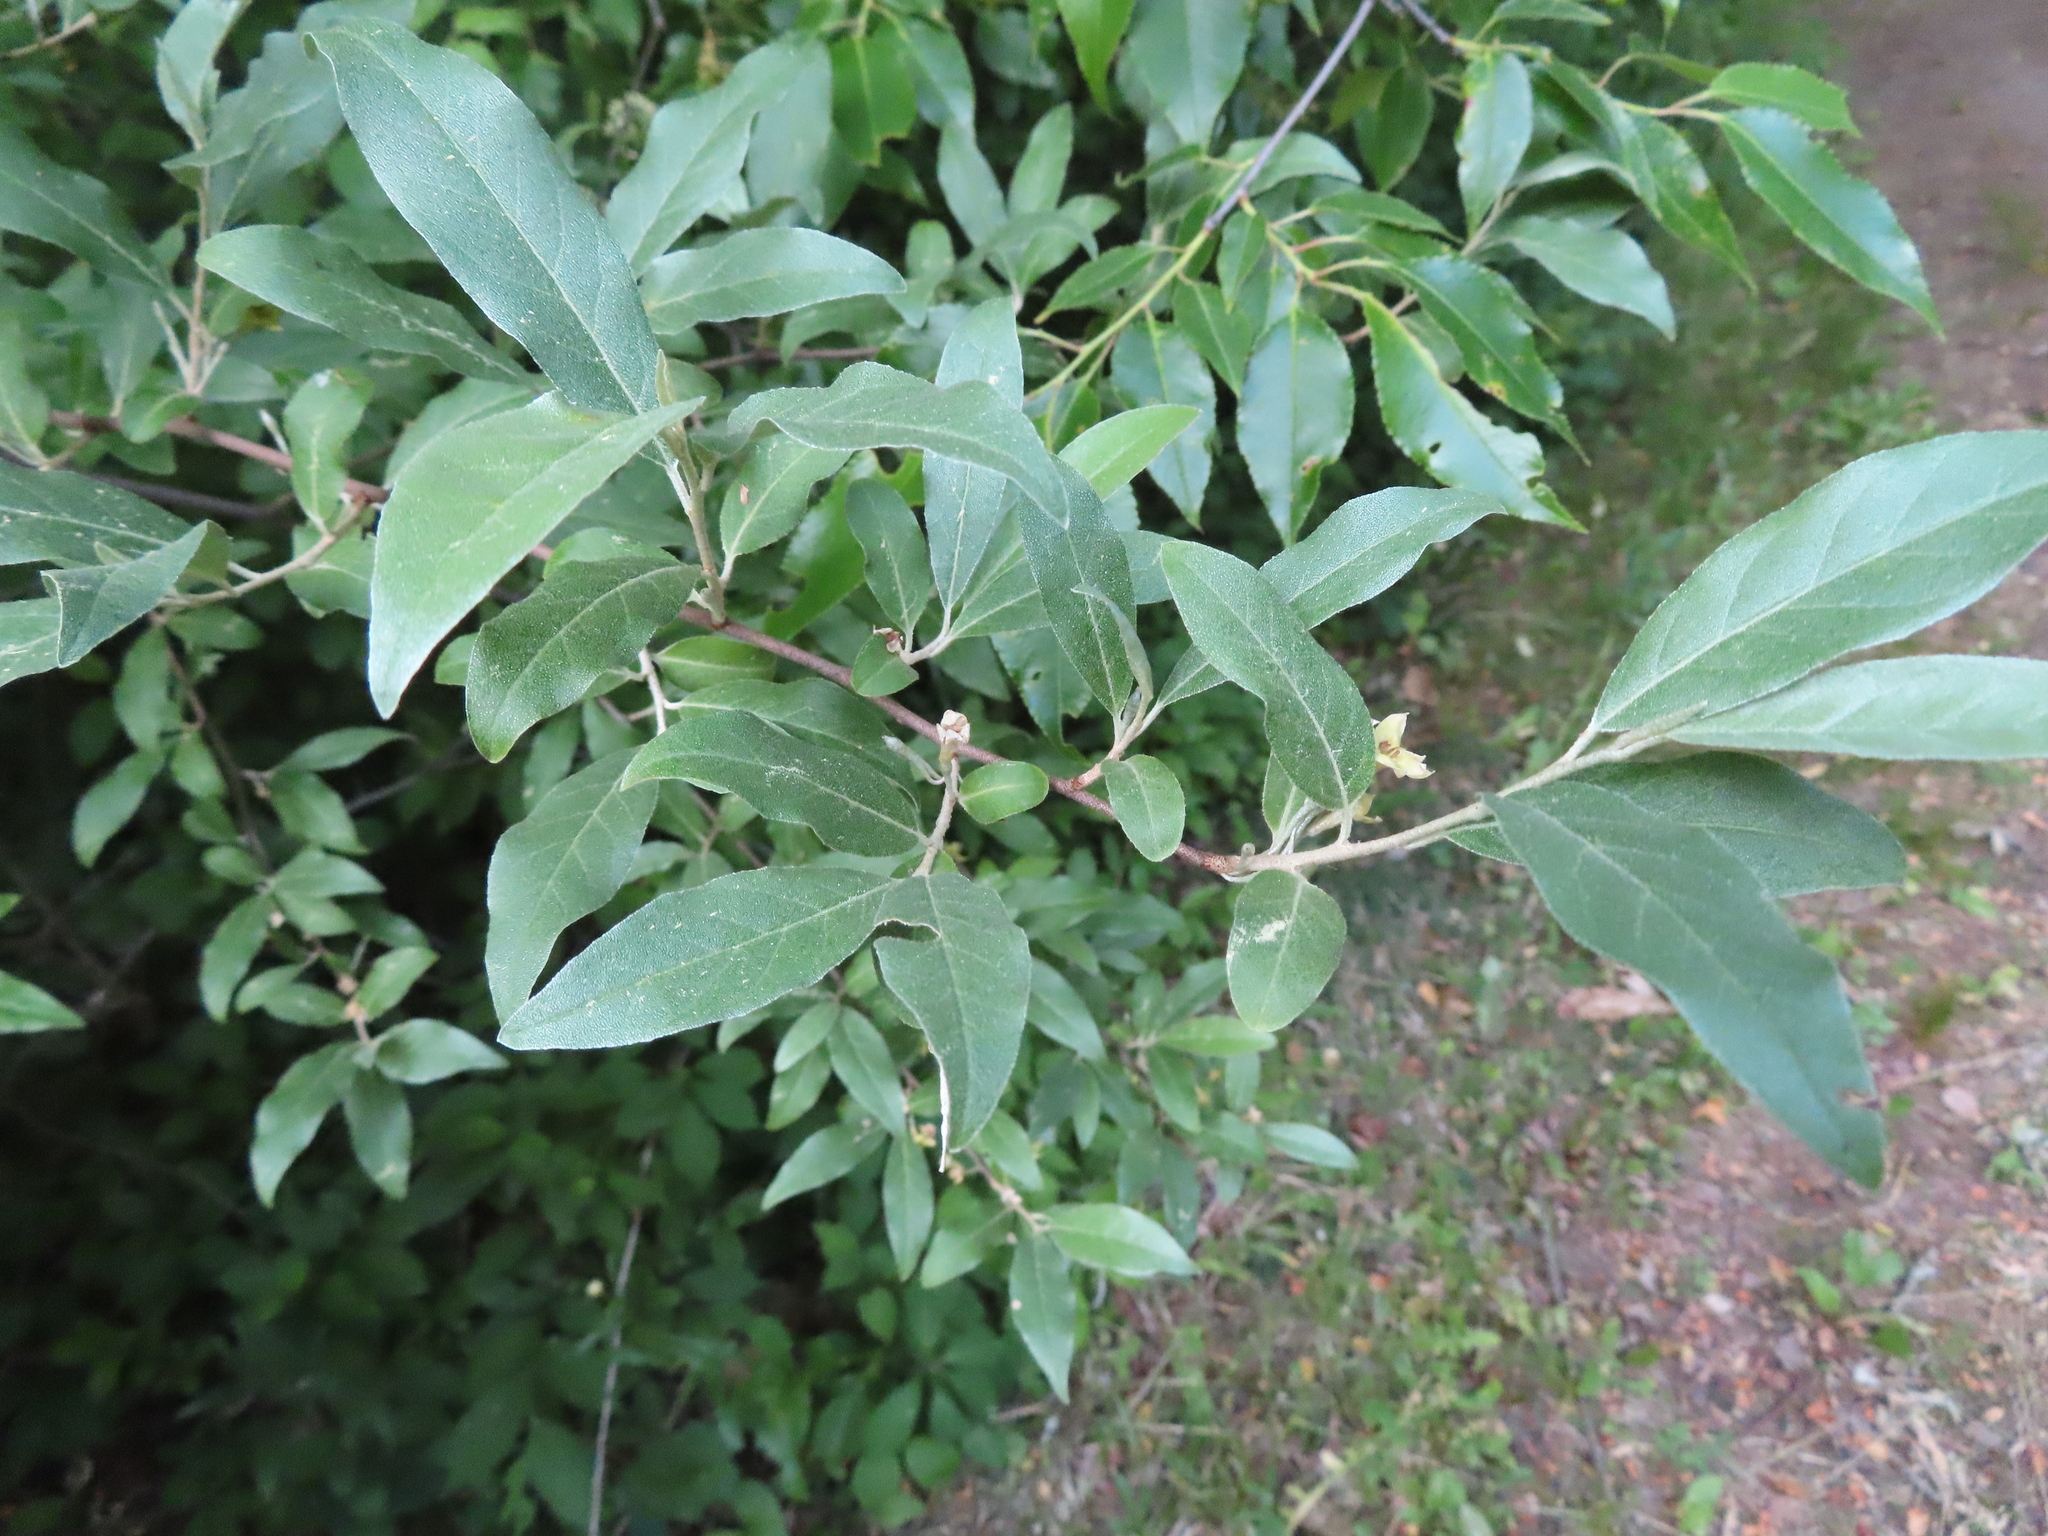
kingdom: Plantae
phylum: Tracheophyta
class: Magnoliopsida
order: Rosales
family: Elaeagnaceae
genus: Elaeagnus
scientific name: Elaeagnus umbellata
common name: Autumn olive
